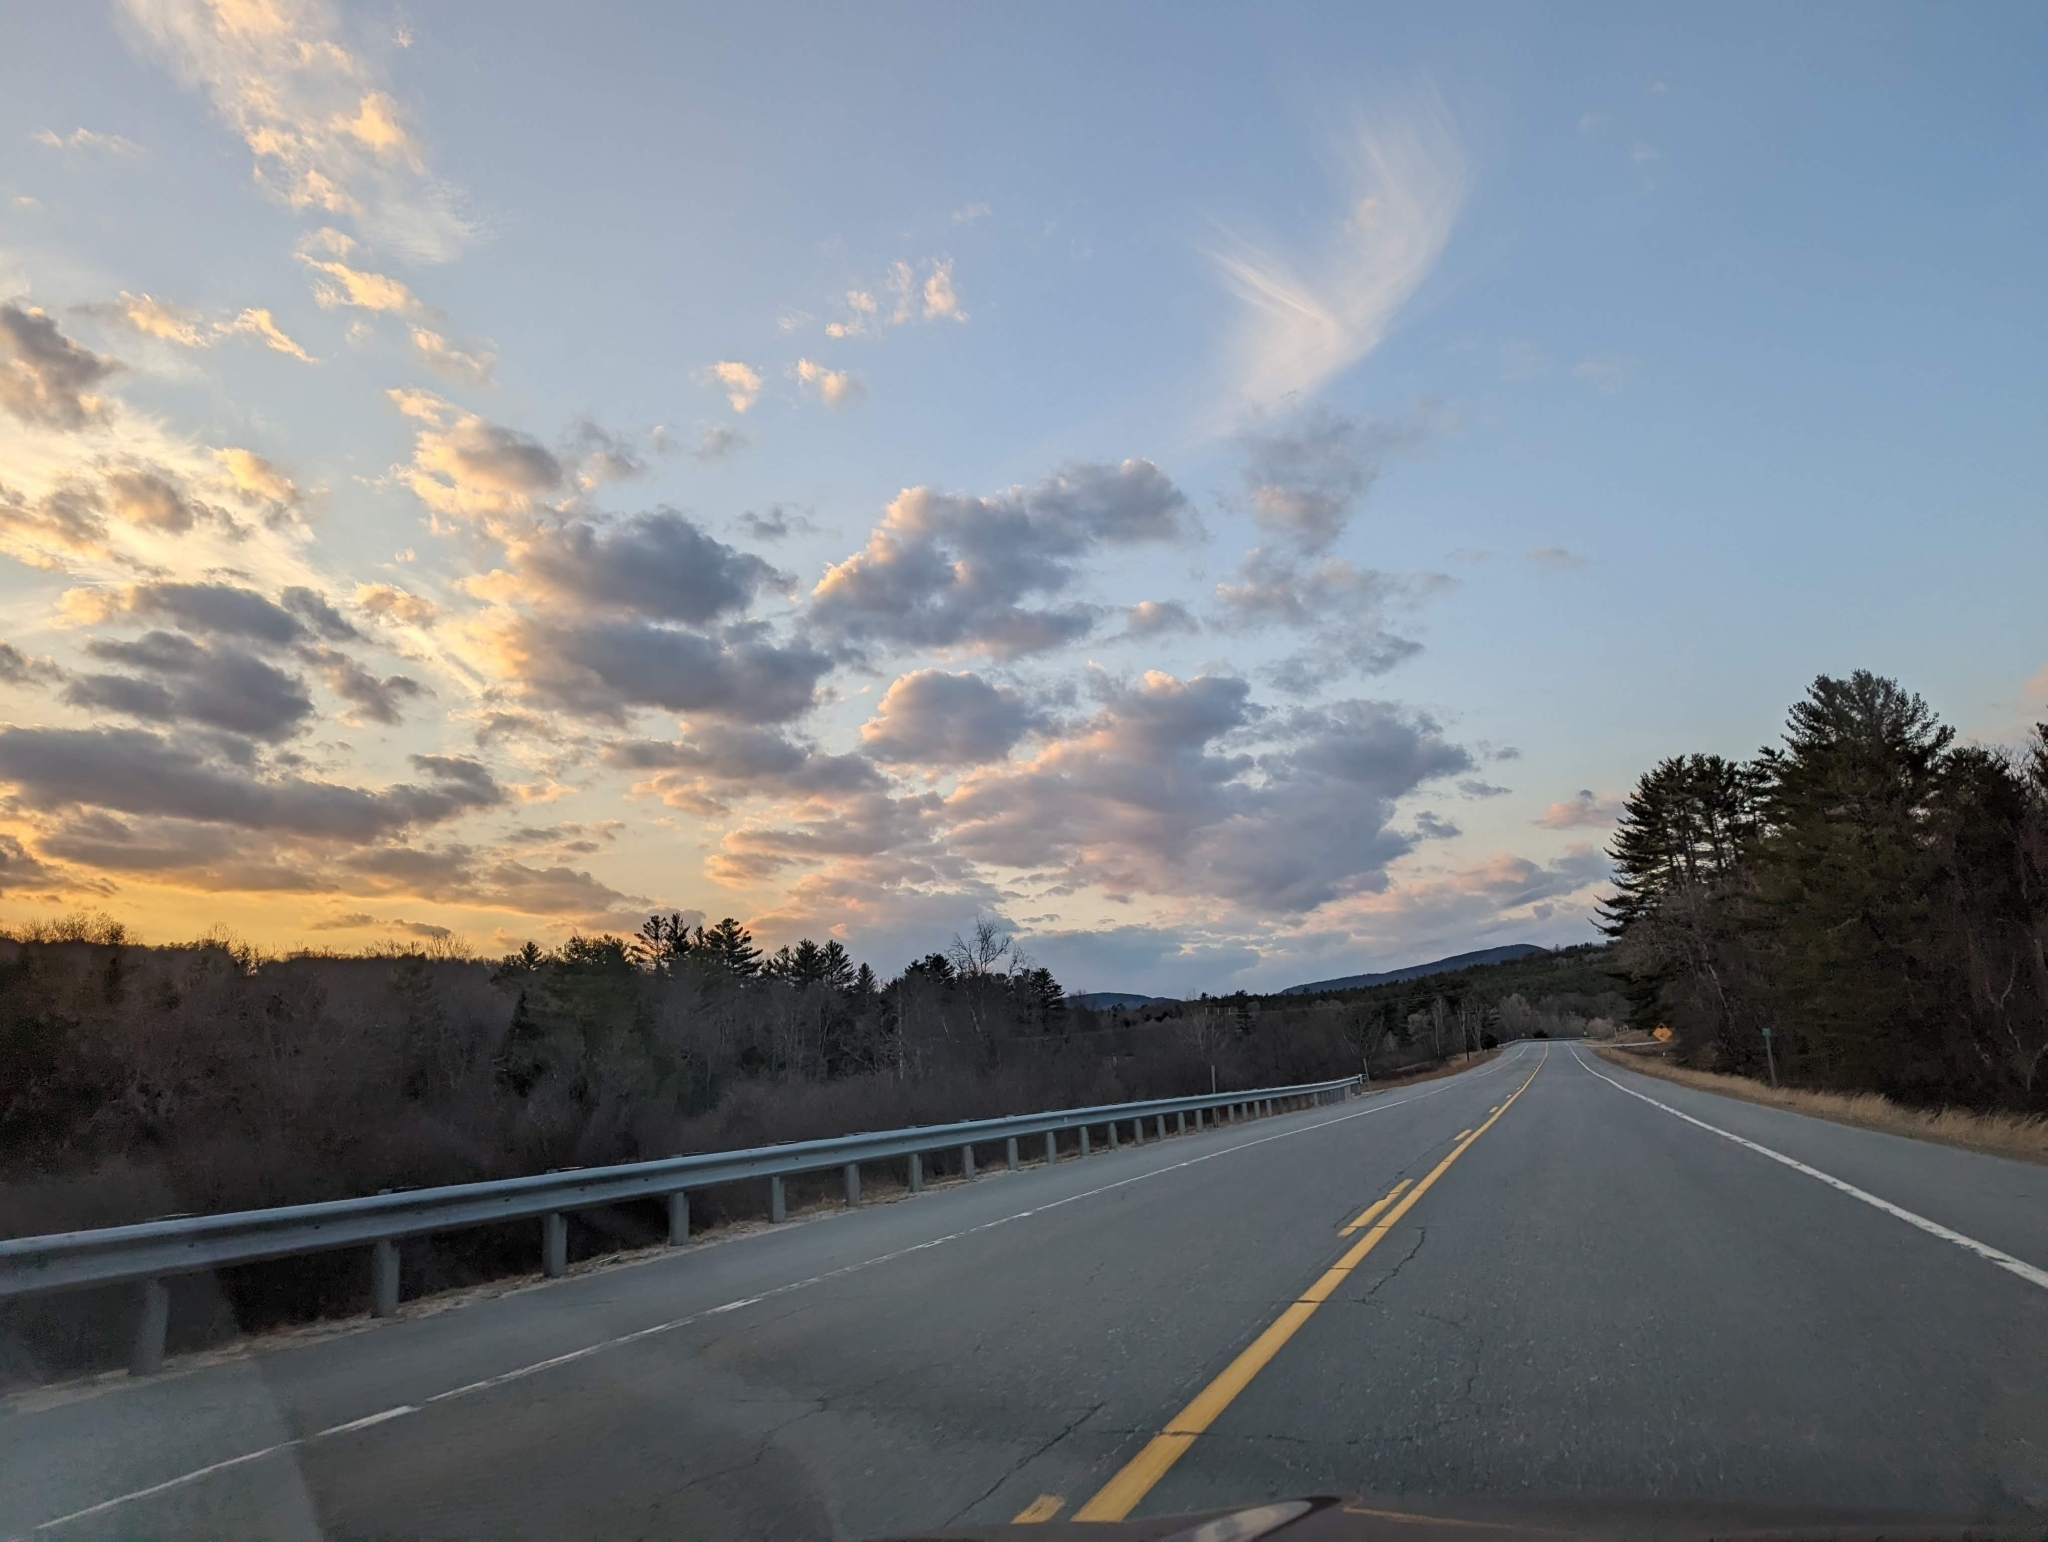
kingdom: Plantae
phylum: Tracheophyta
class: Pinopsida
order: Pinales
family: Pinaceae
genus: Pinus
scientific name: Pinus strobus
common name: Weymouth pine
